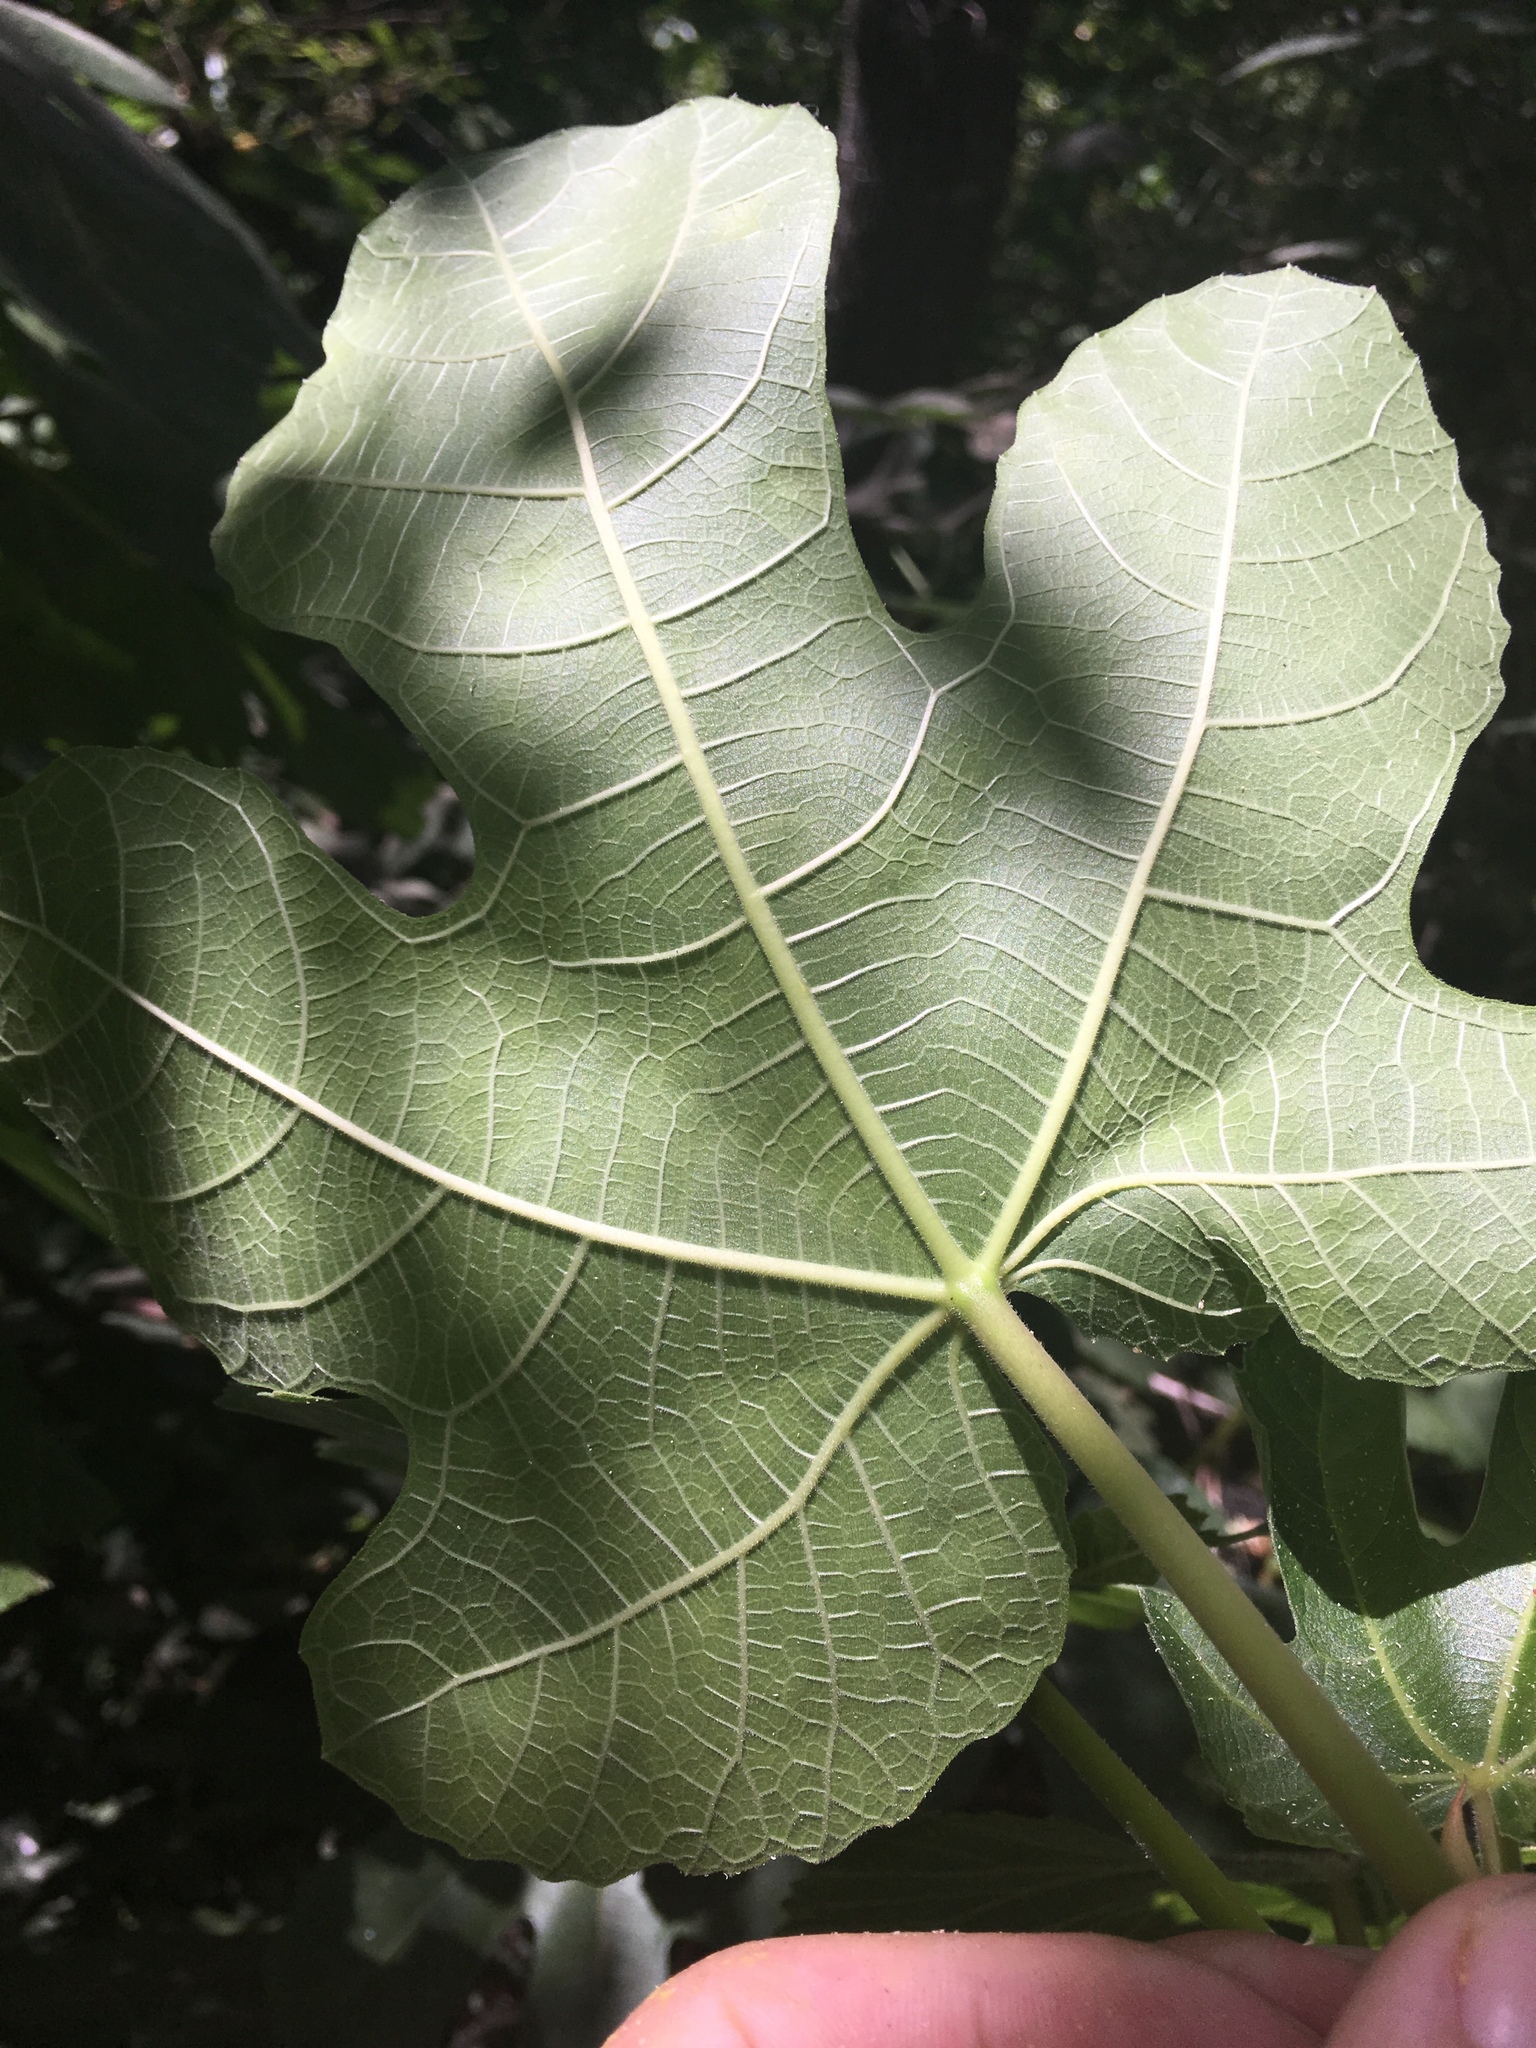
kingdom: Plantae
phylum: Tracheophyta
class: Magnoliopsida
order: Rosales
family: Moraceae
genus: Ficus
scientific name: Ficus carica
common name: Fig
